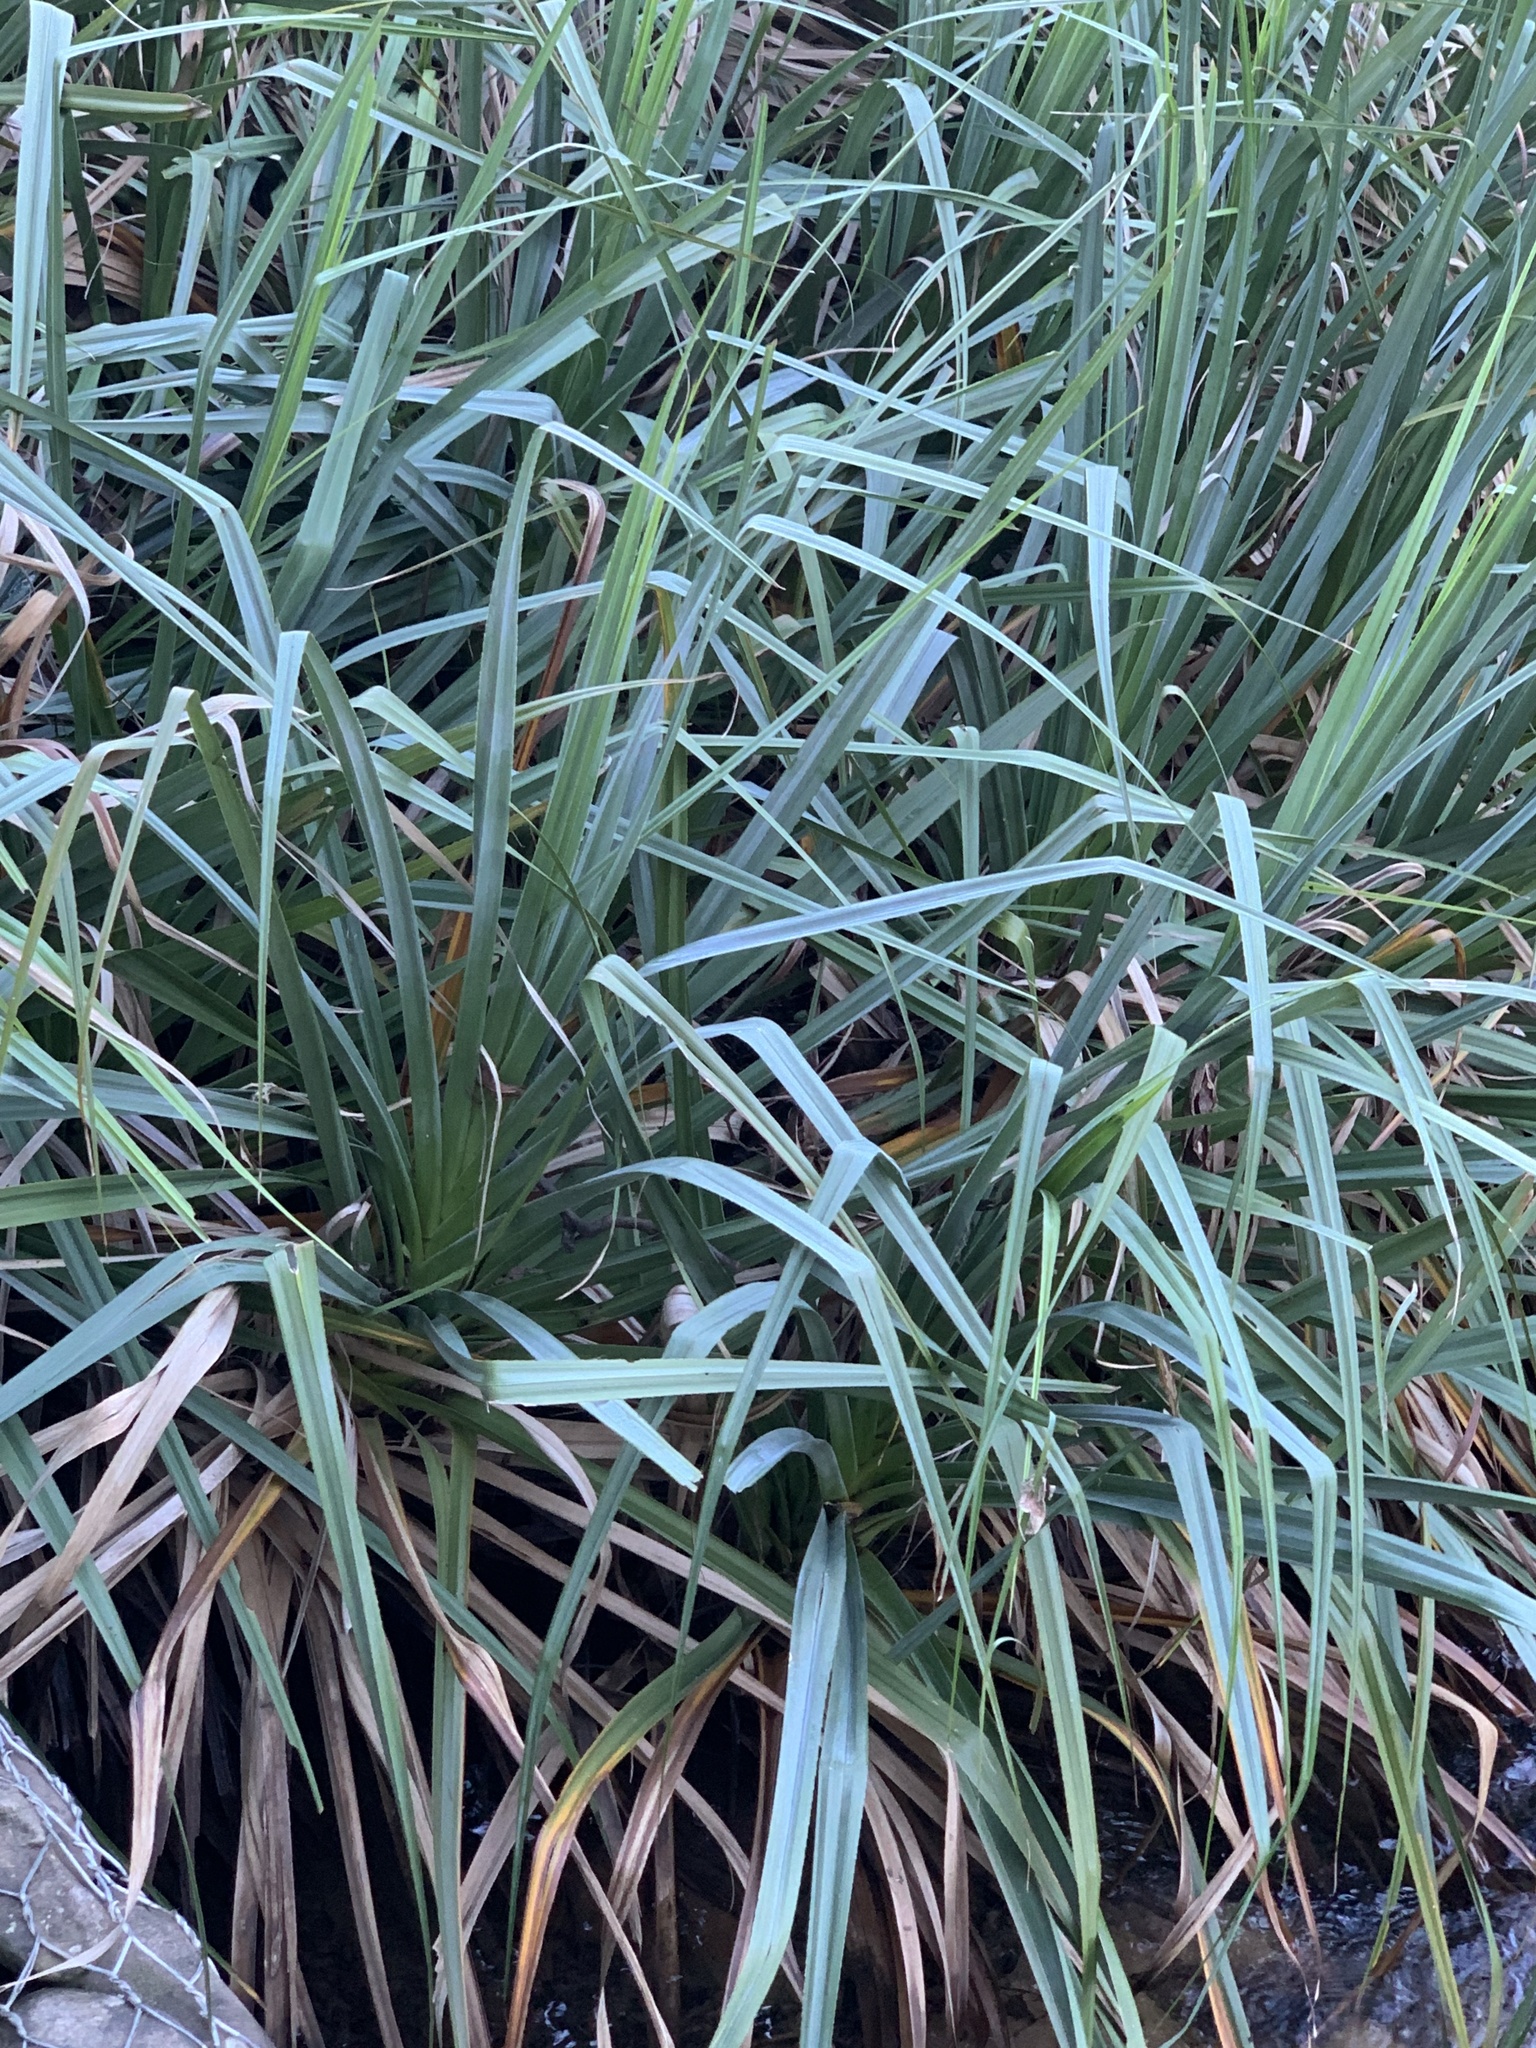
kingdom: Plantae
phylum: Tracheophyta
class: Liliopsida
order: Poales
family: Thurniaceae
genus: Prionium
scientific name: Prionium serratum
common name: Palmiet
